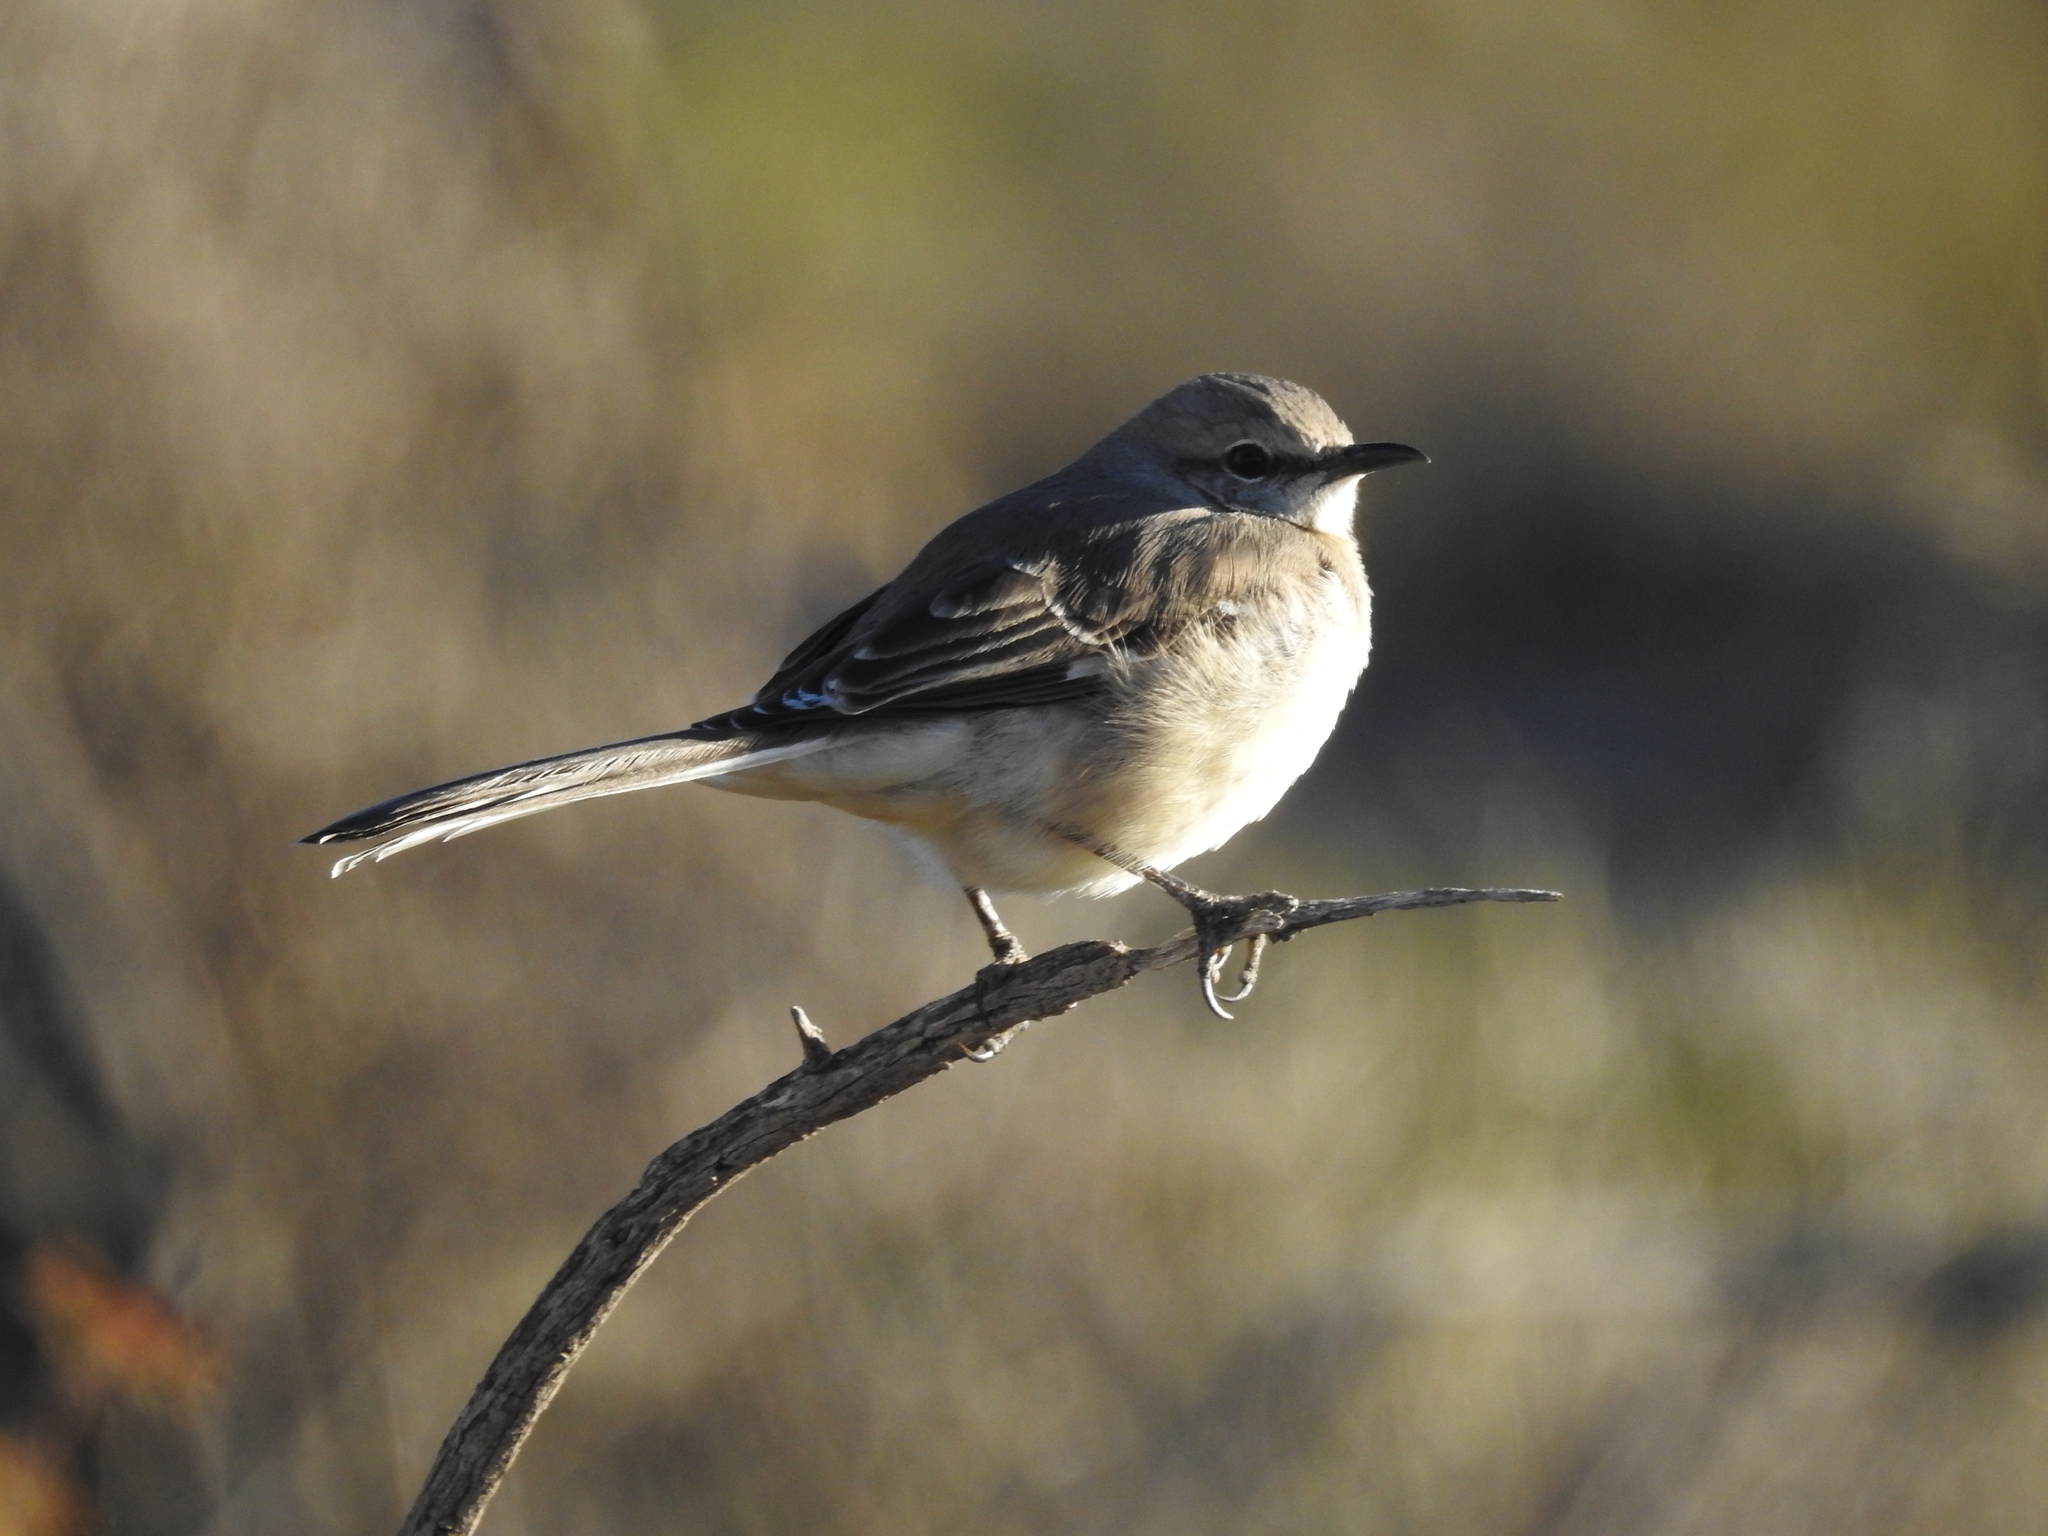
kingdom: Animalia
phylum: Chordata
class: Aves
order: Passeriformes
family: Mimidae
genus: Mimus
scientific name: Mimus polyglottos
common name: Northern mockingbird
